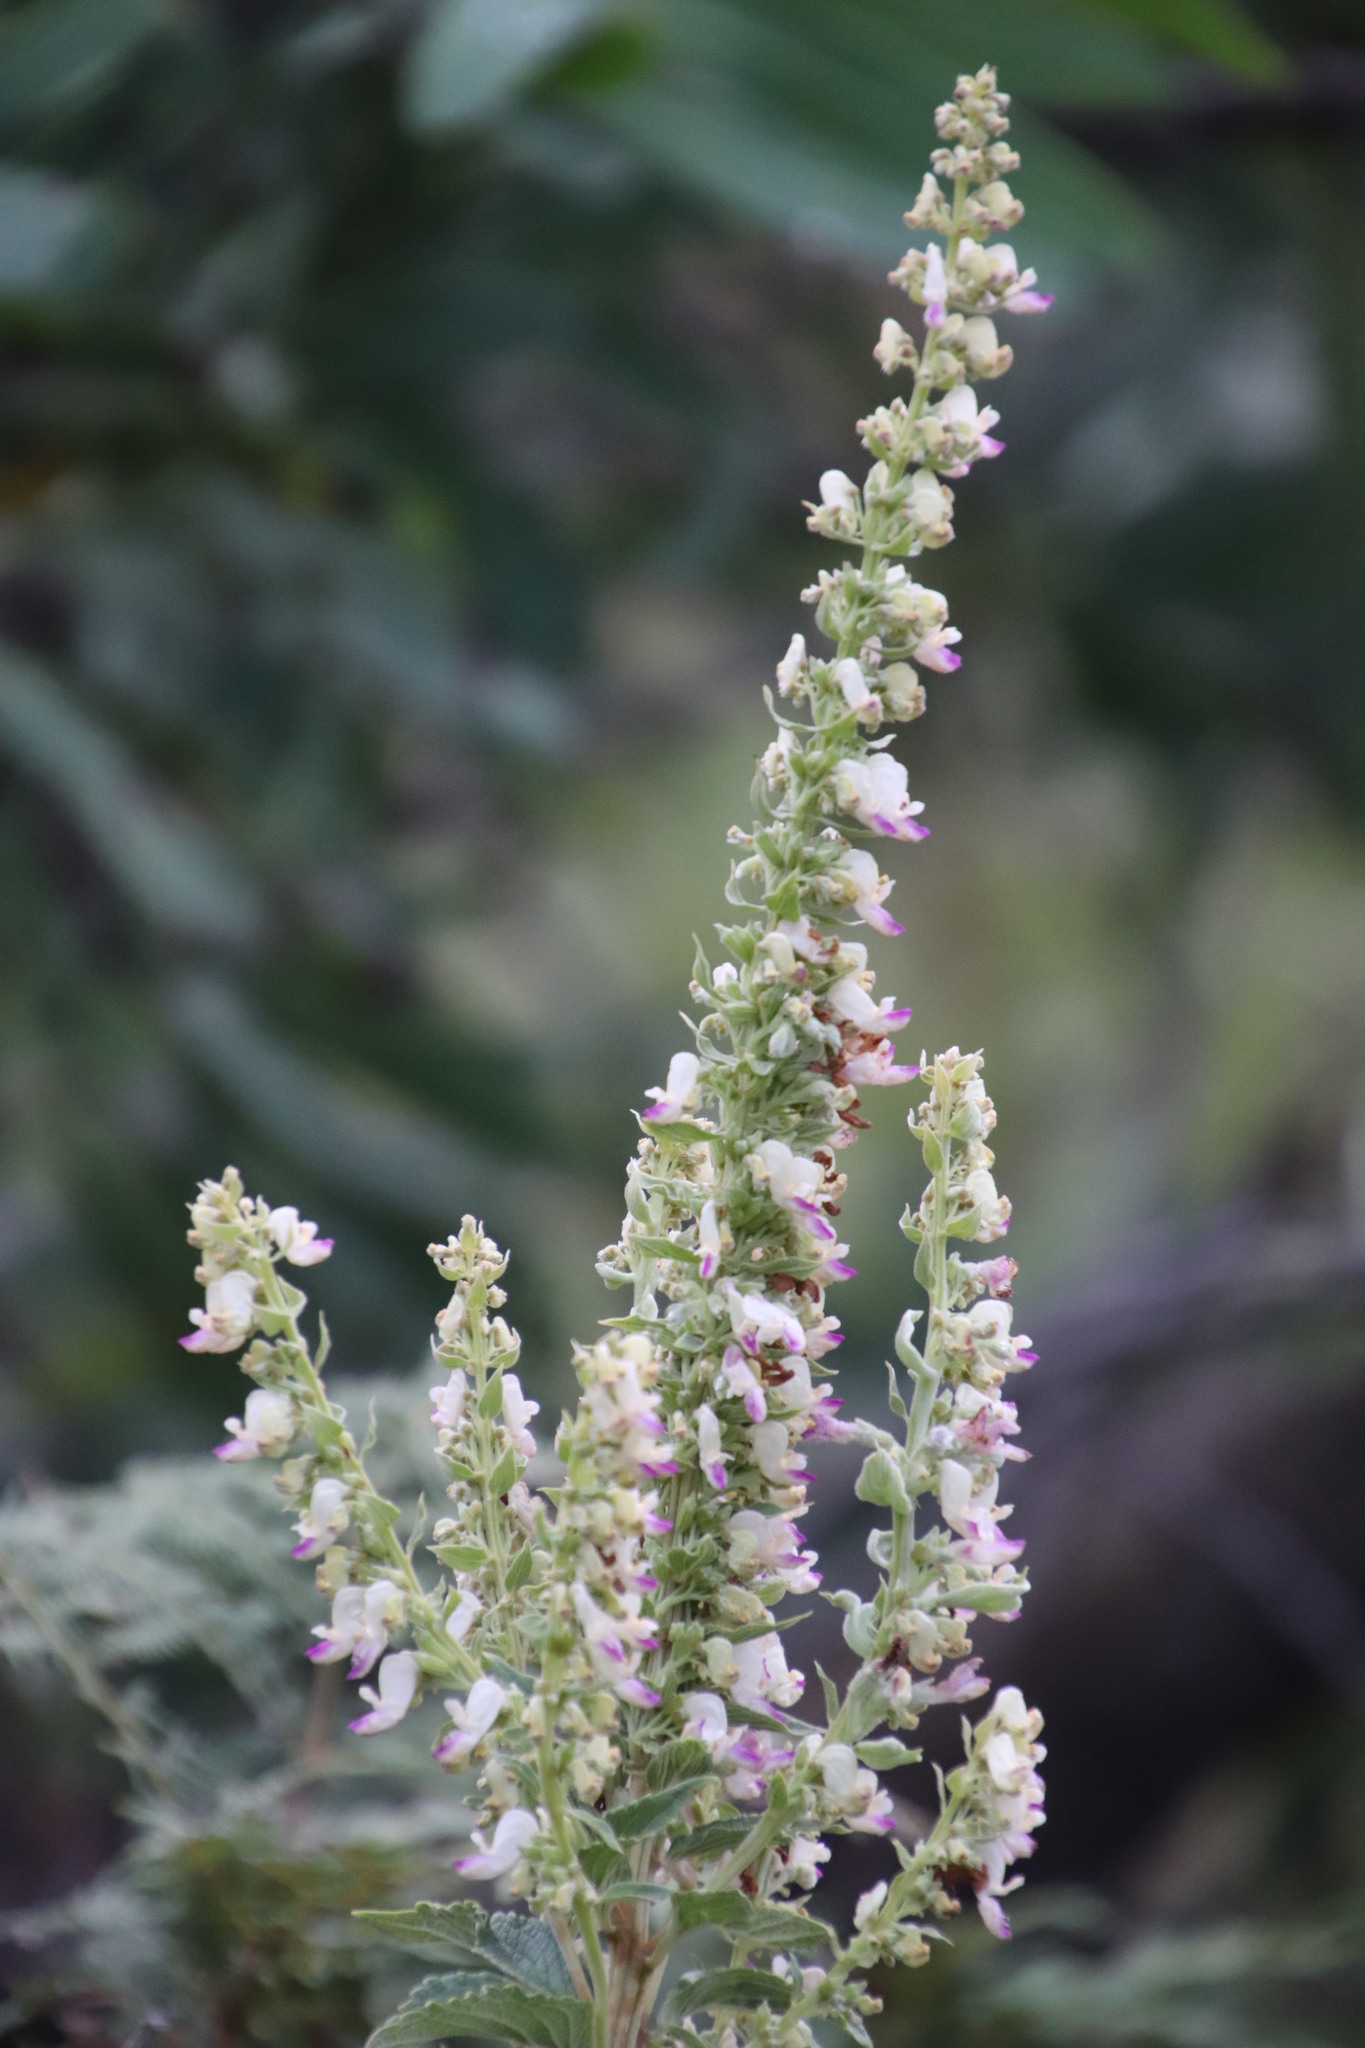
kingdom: Plantae
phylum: Tracheophyta
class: Magnoliopsida
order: Lamiales
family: Lamiaceae
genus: Coleus
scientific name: Coleus calycinus
